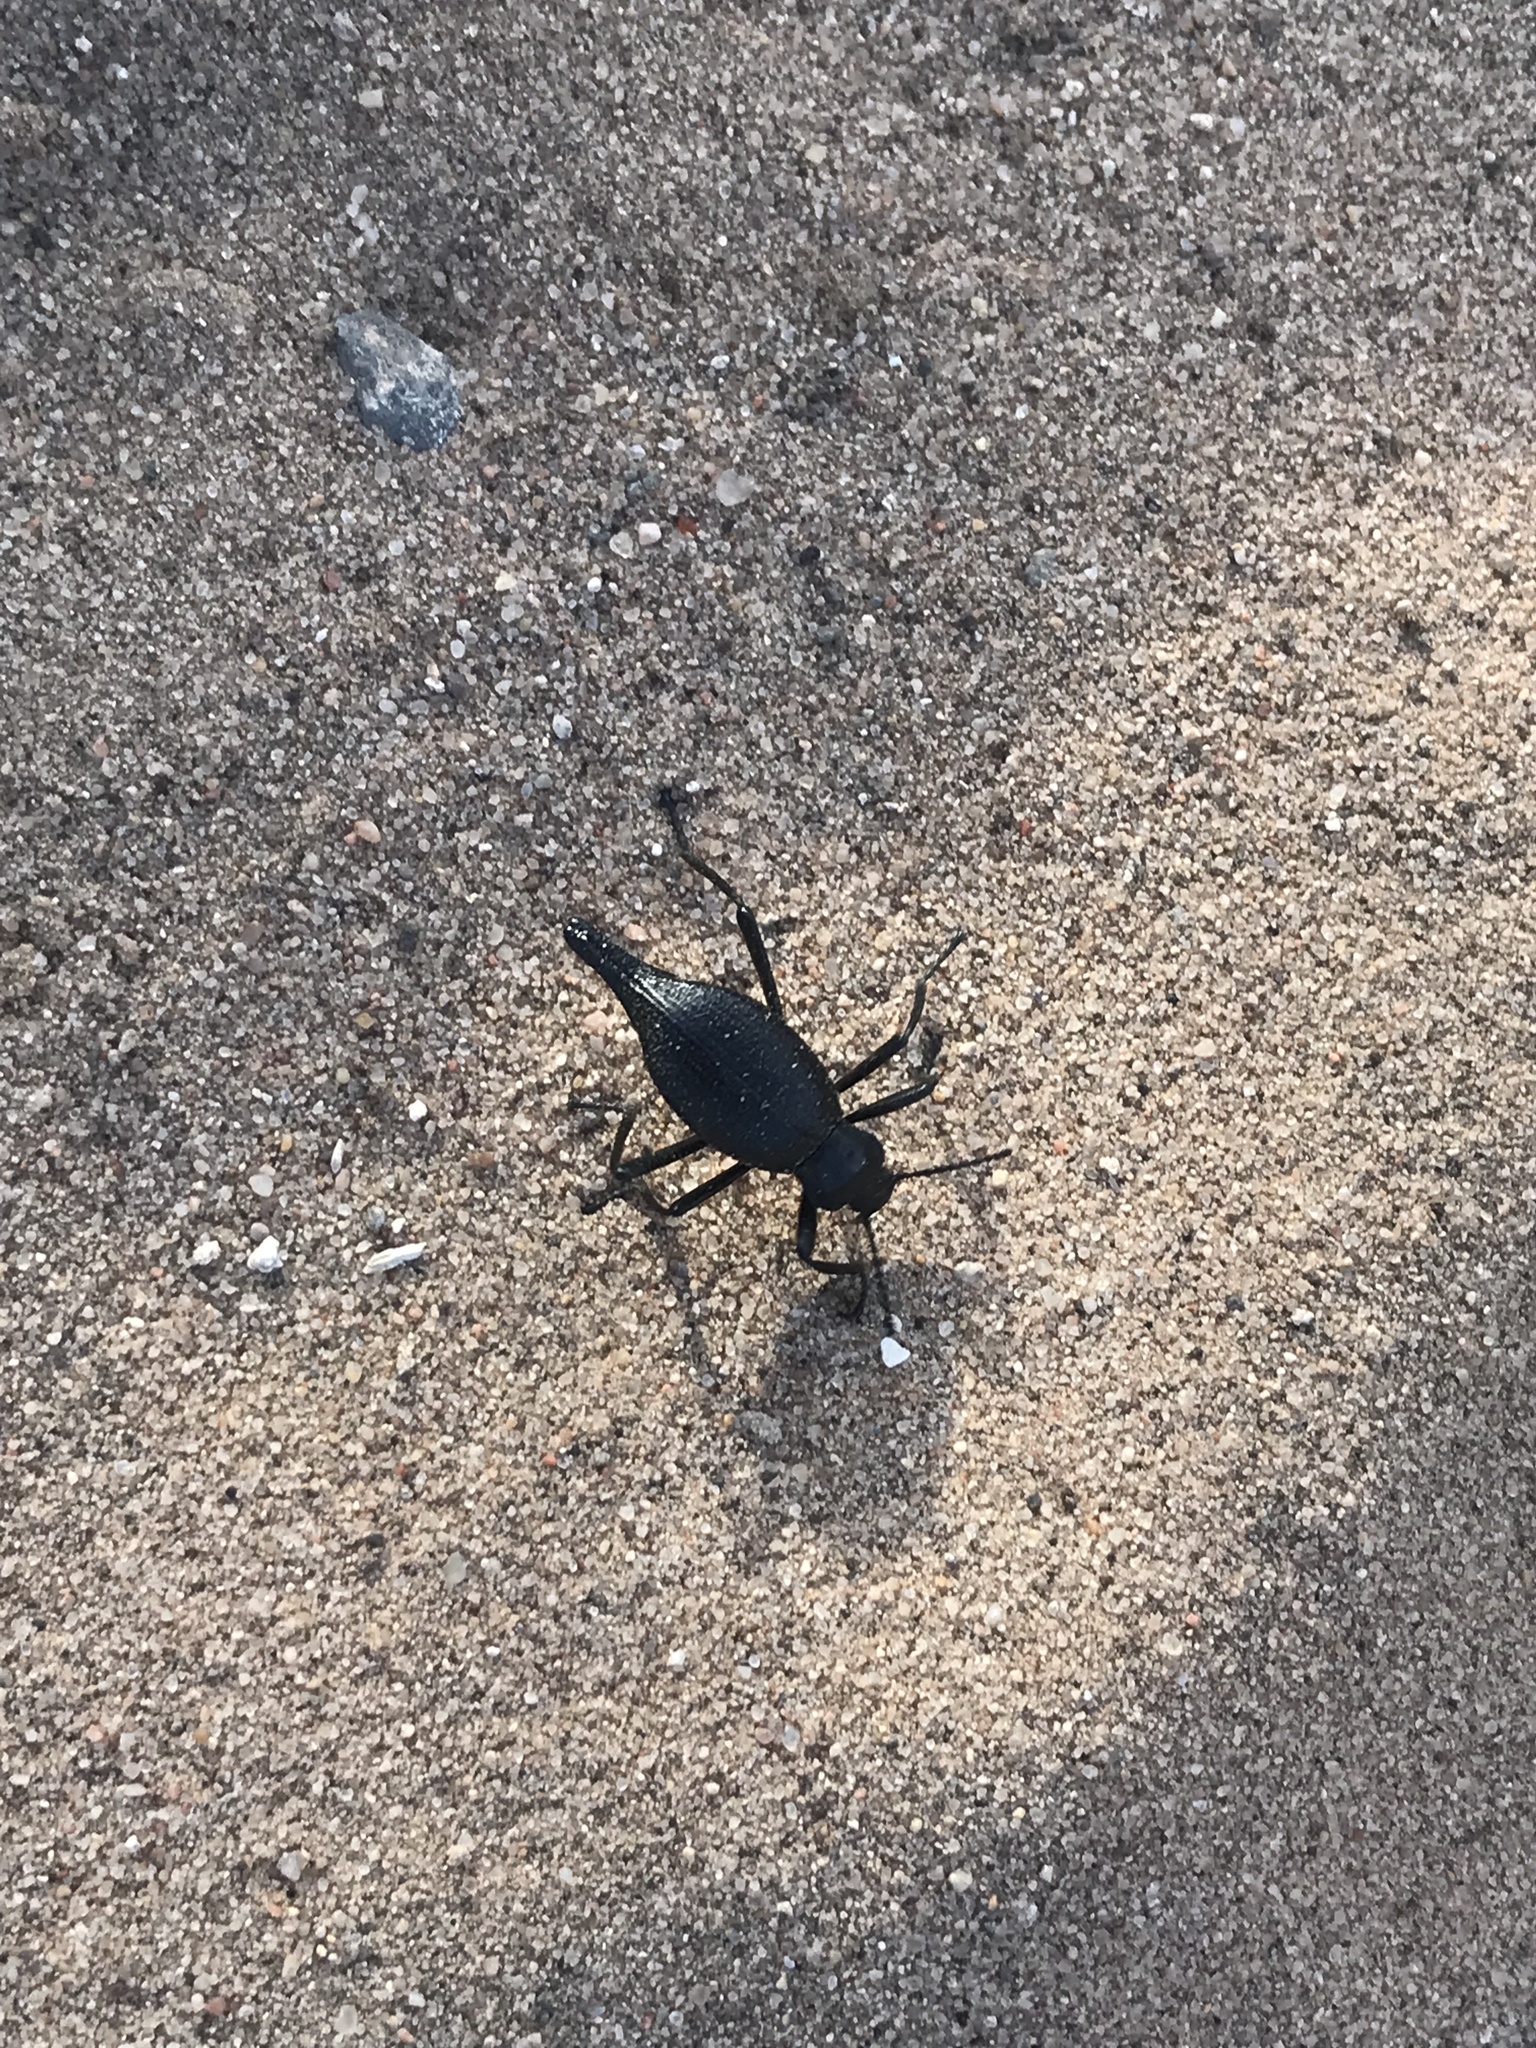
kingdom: Animalia
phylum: Arthropoda
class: Insecta
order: Coleoptera
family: Tenebrionidae
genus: Eleodes
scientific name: Eleodes caudifera
